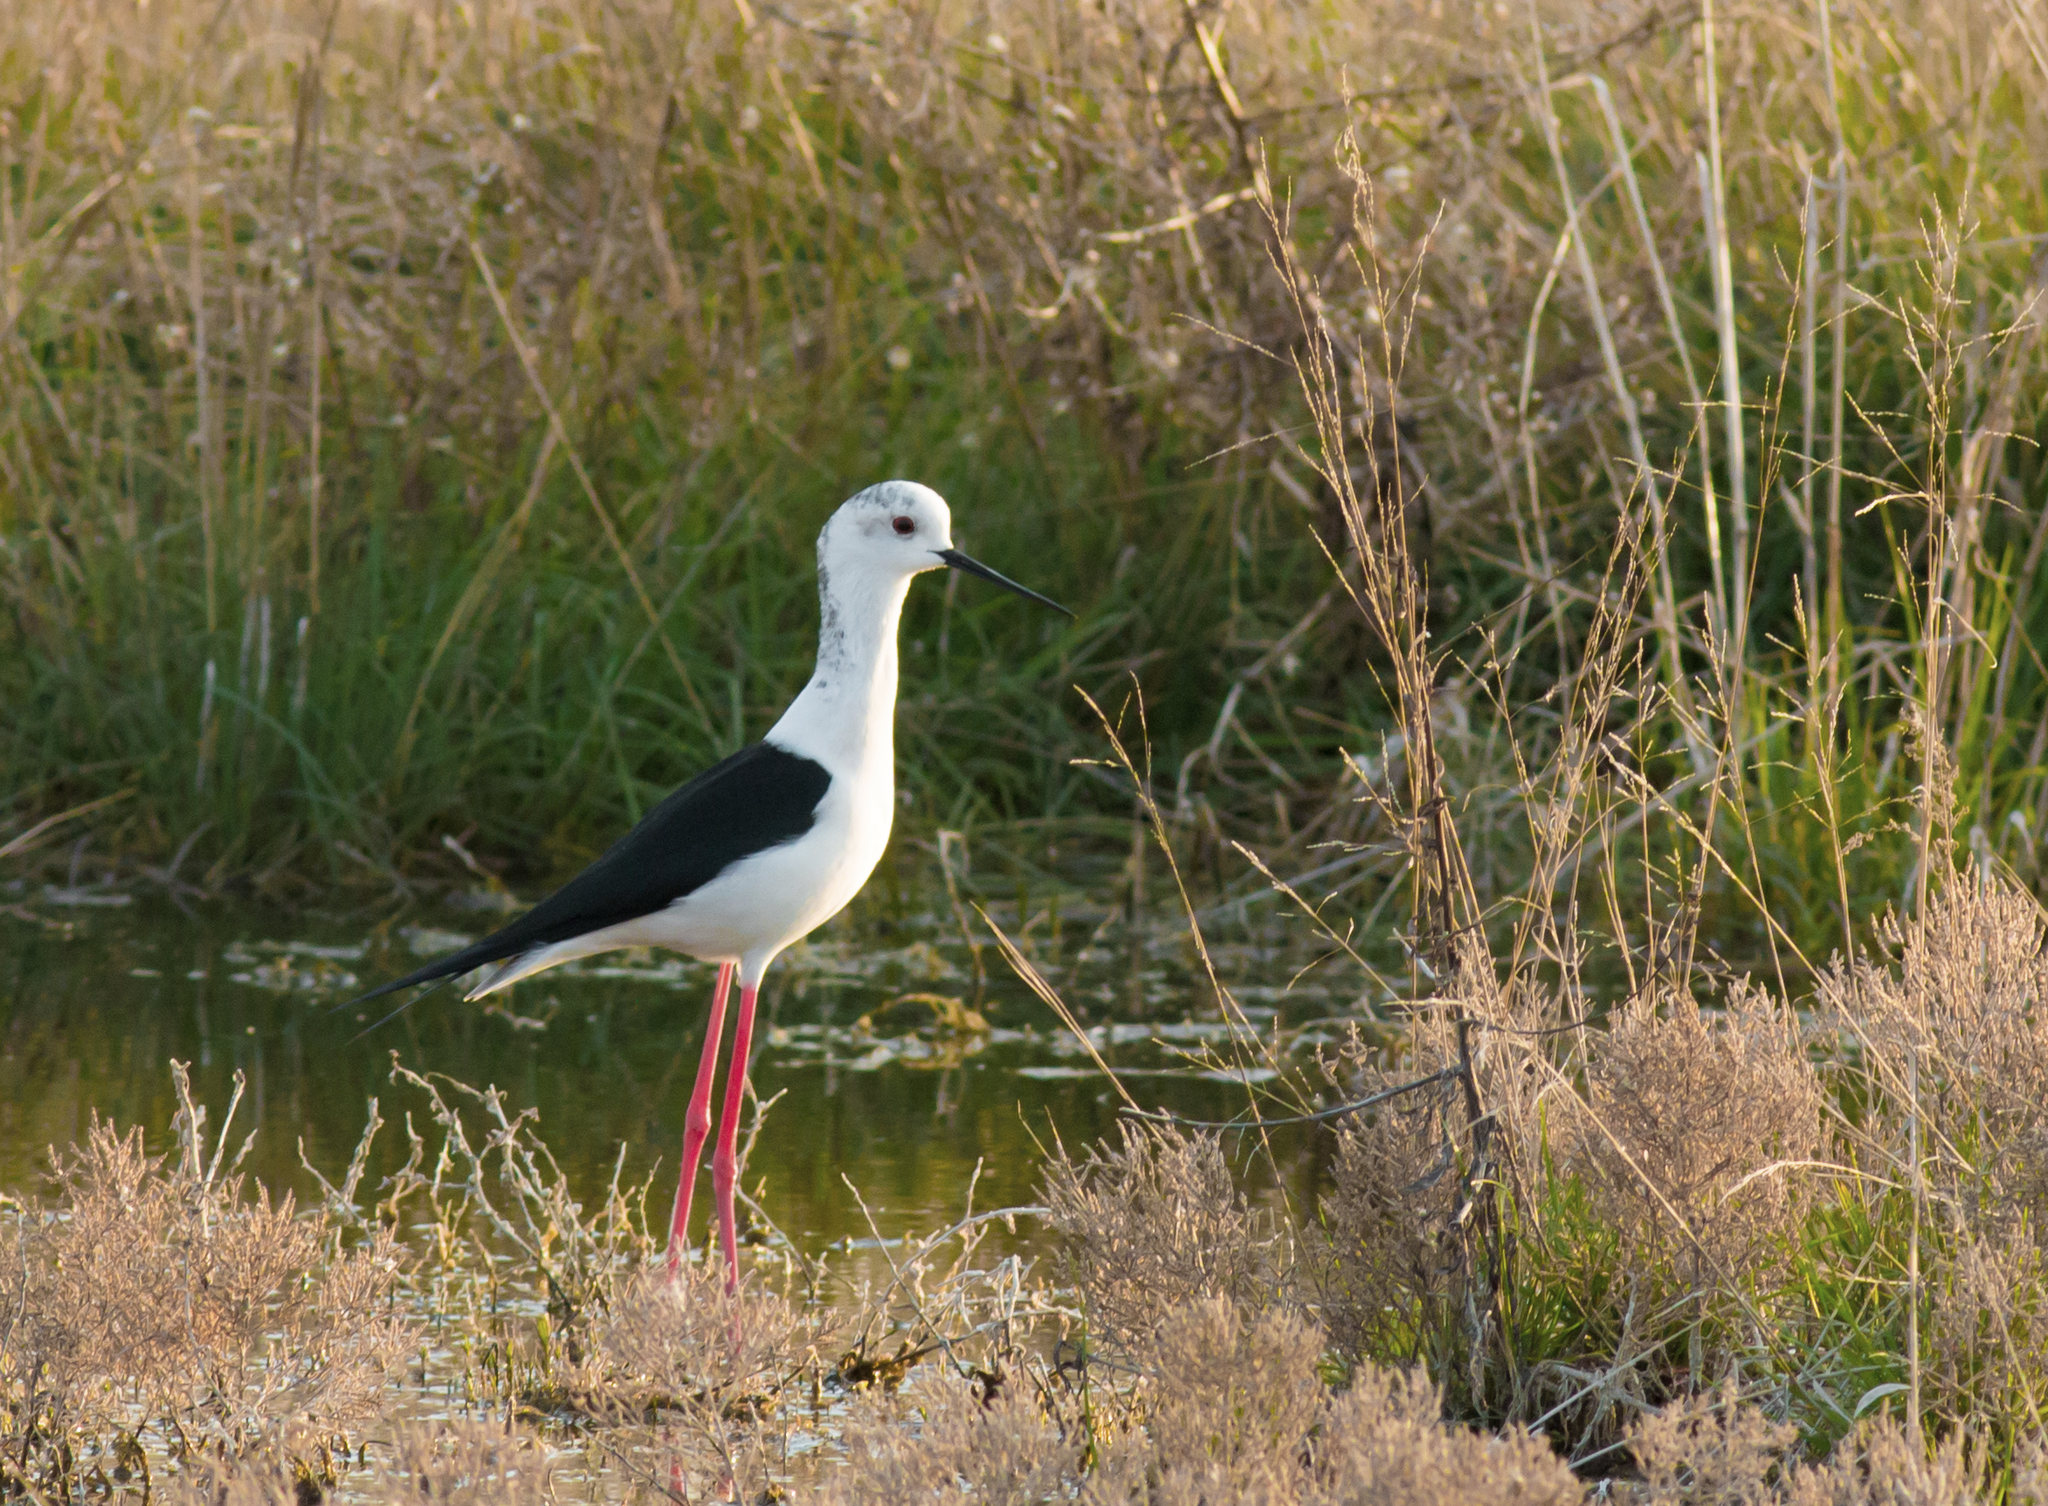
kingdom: Animalia
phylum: Chordata
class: Aves
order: Charadriiformes
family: Recurvirostridae
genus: Himantopus
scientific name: Himantopus himantopus
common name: Black-winged stilt
